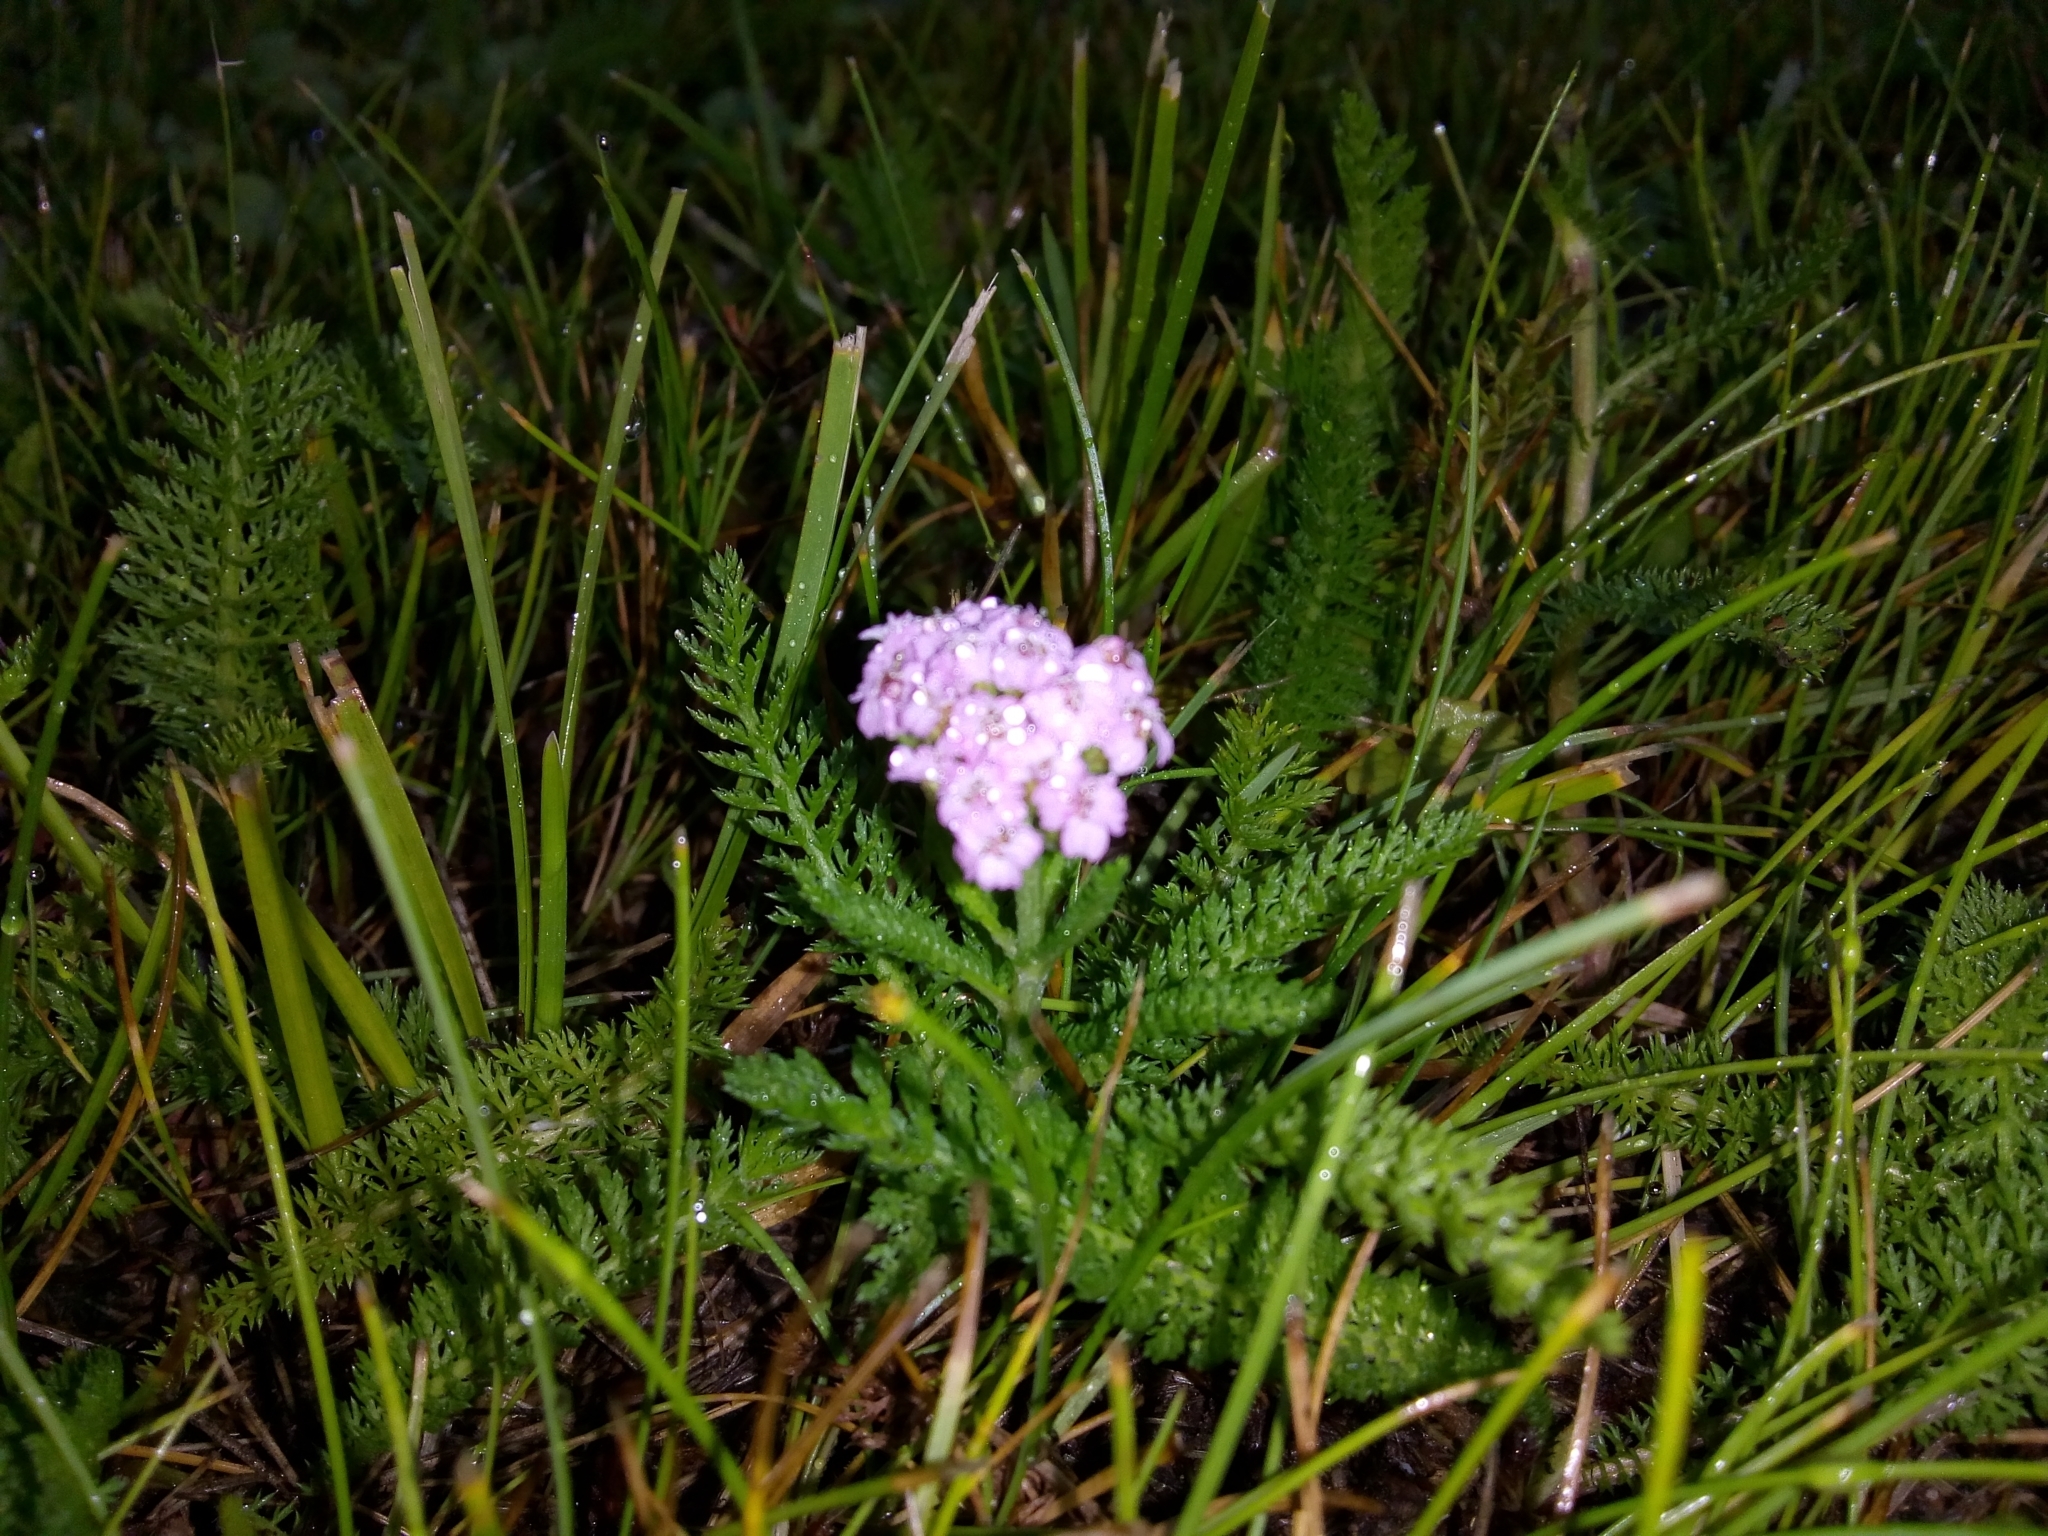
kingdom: Plantae
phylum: Tracheophyta
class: Magnoliopsida
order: Asterales
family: Asteraceae
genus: Achillea
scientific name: Achillea millefolium
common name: Yarrow
